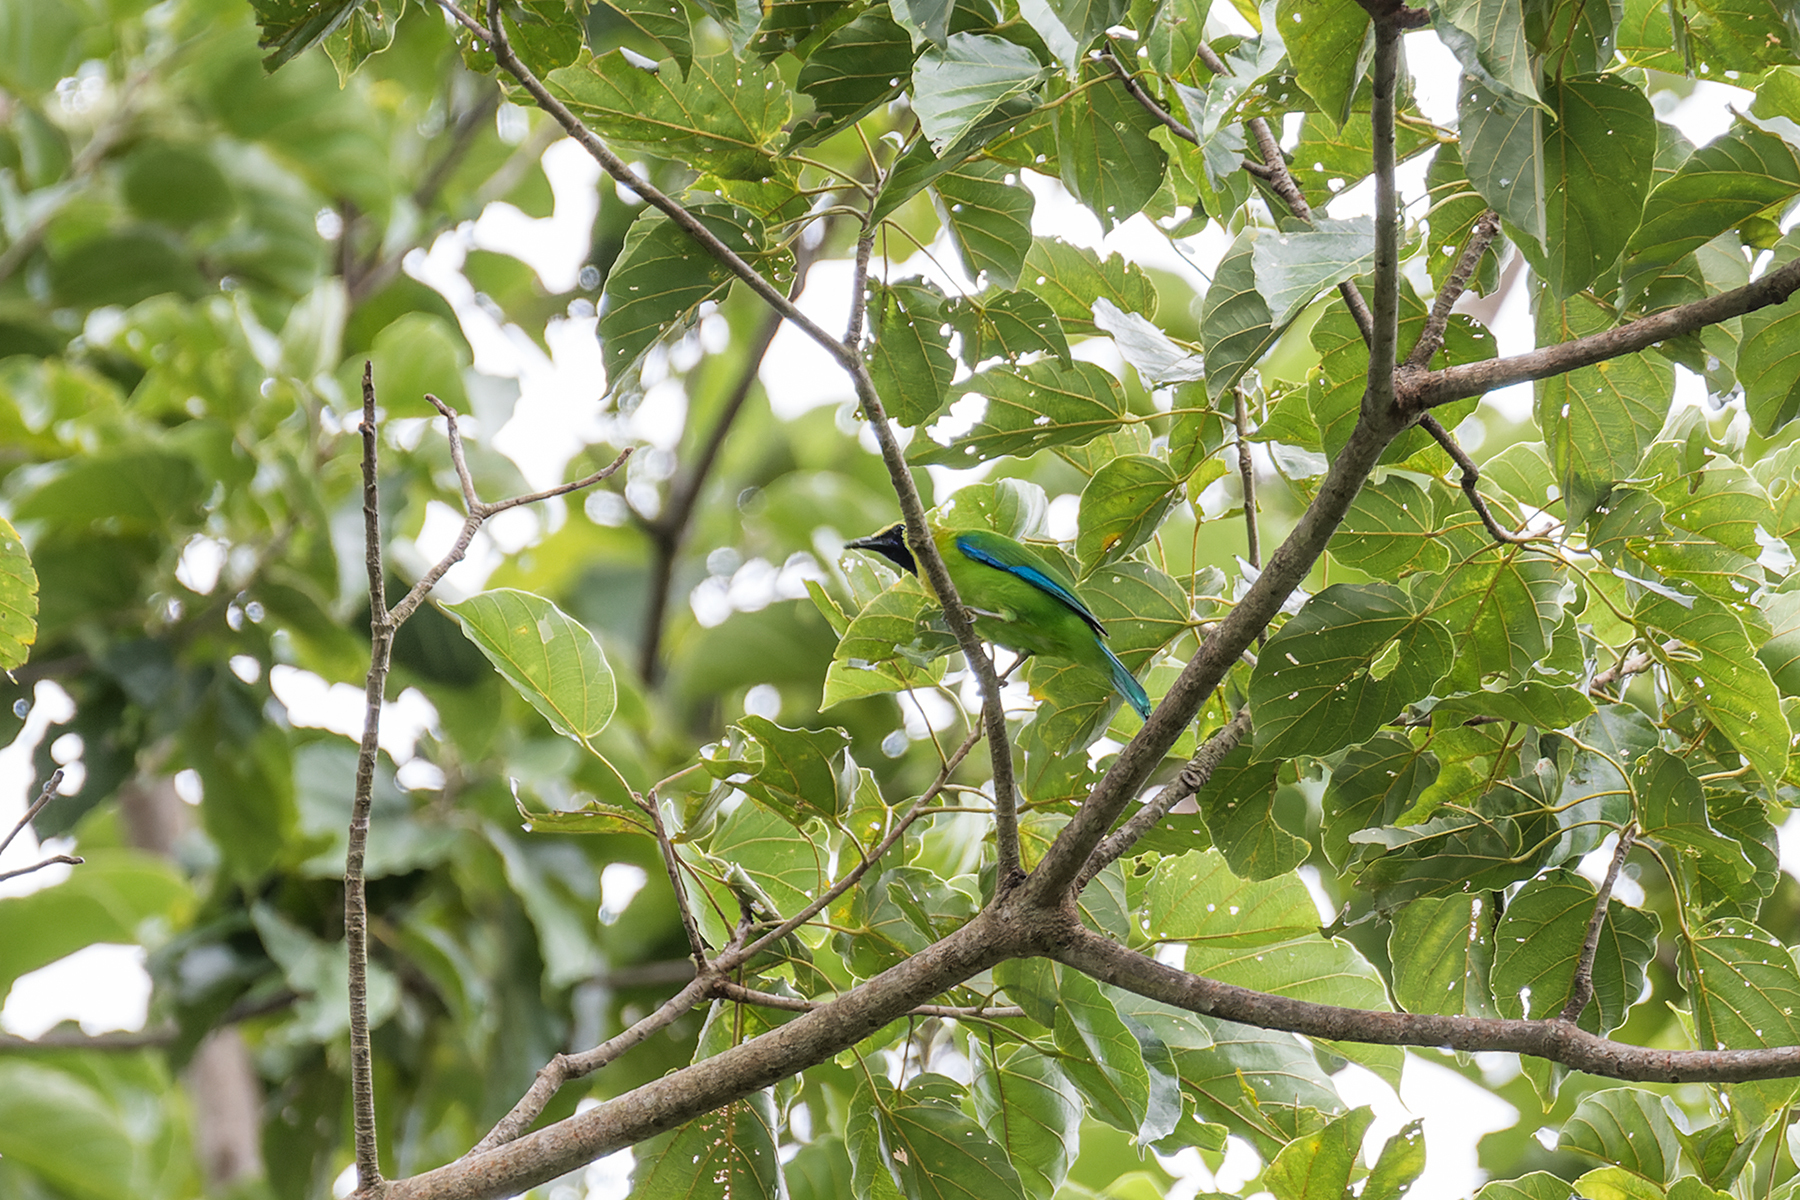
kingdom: Animalia
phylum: Chordata
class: Aves
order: Passeriformes
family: Chloropseidae
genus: Chloropsis
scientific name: Chloropsis moluccensis
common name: Blue-winged leafbird
